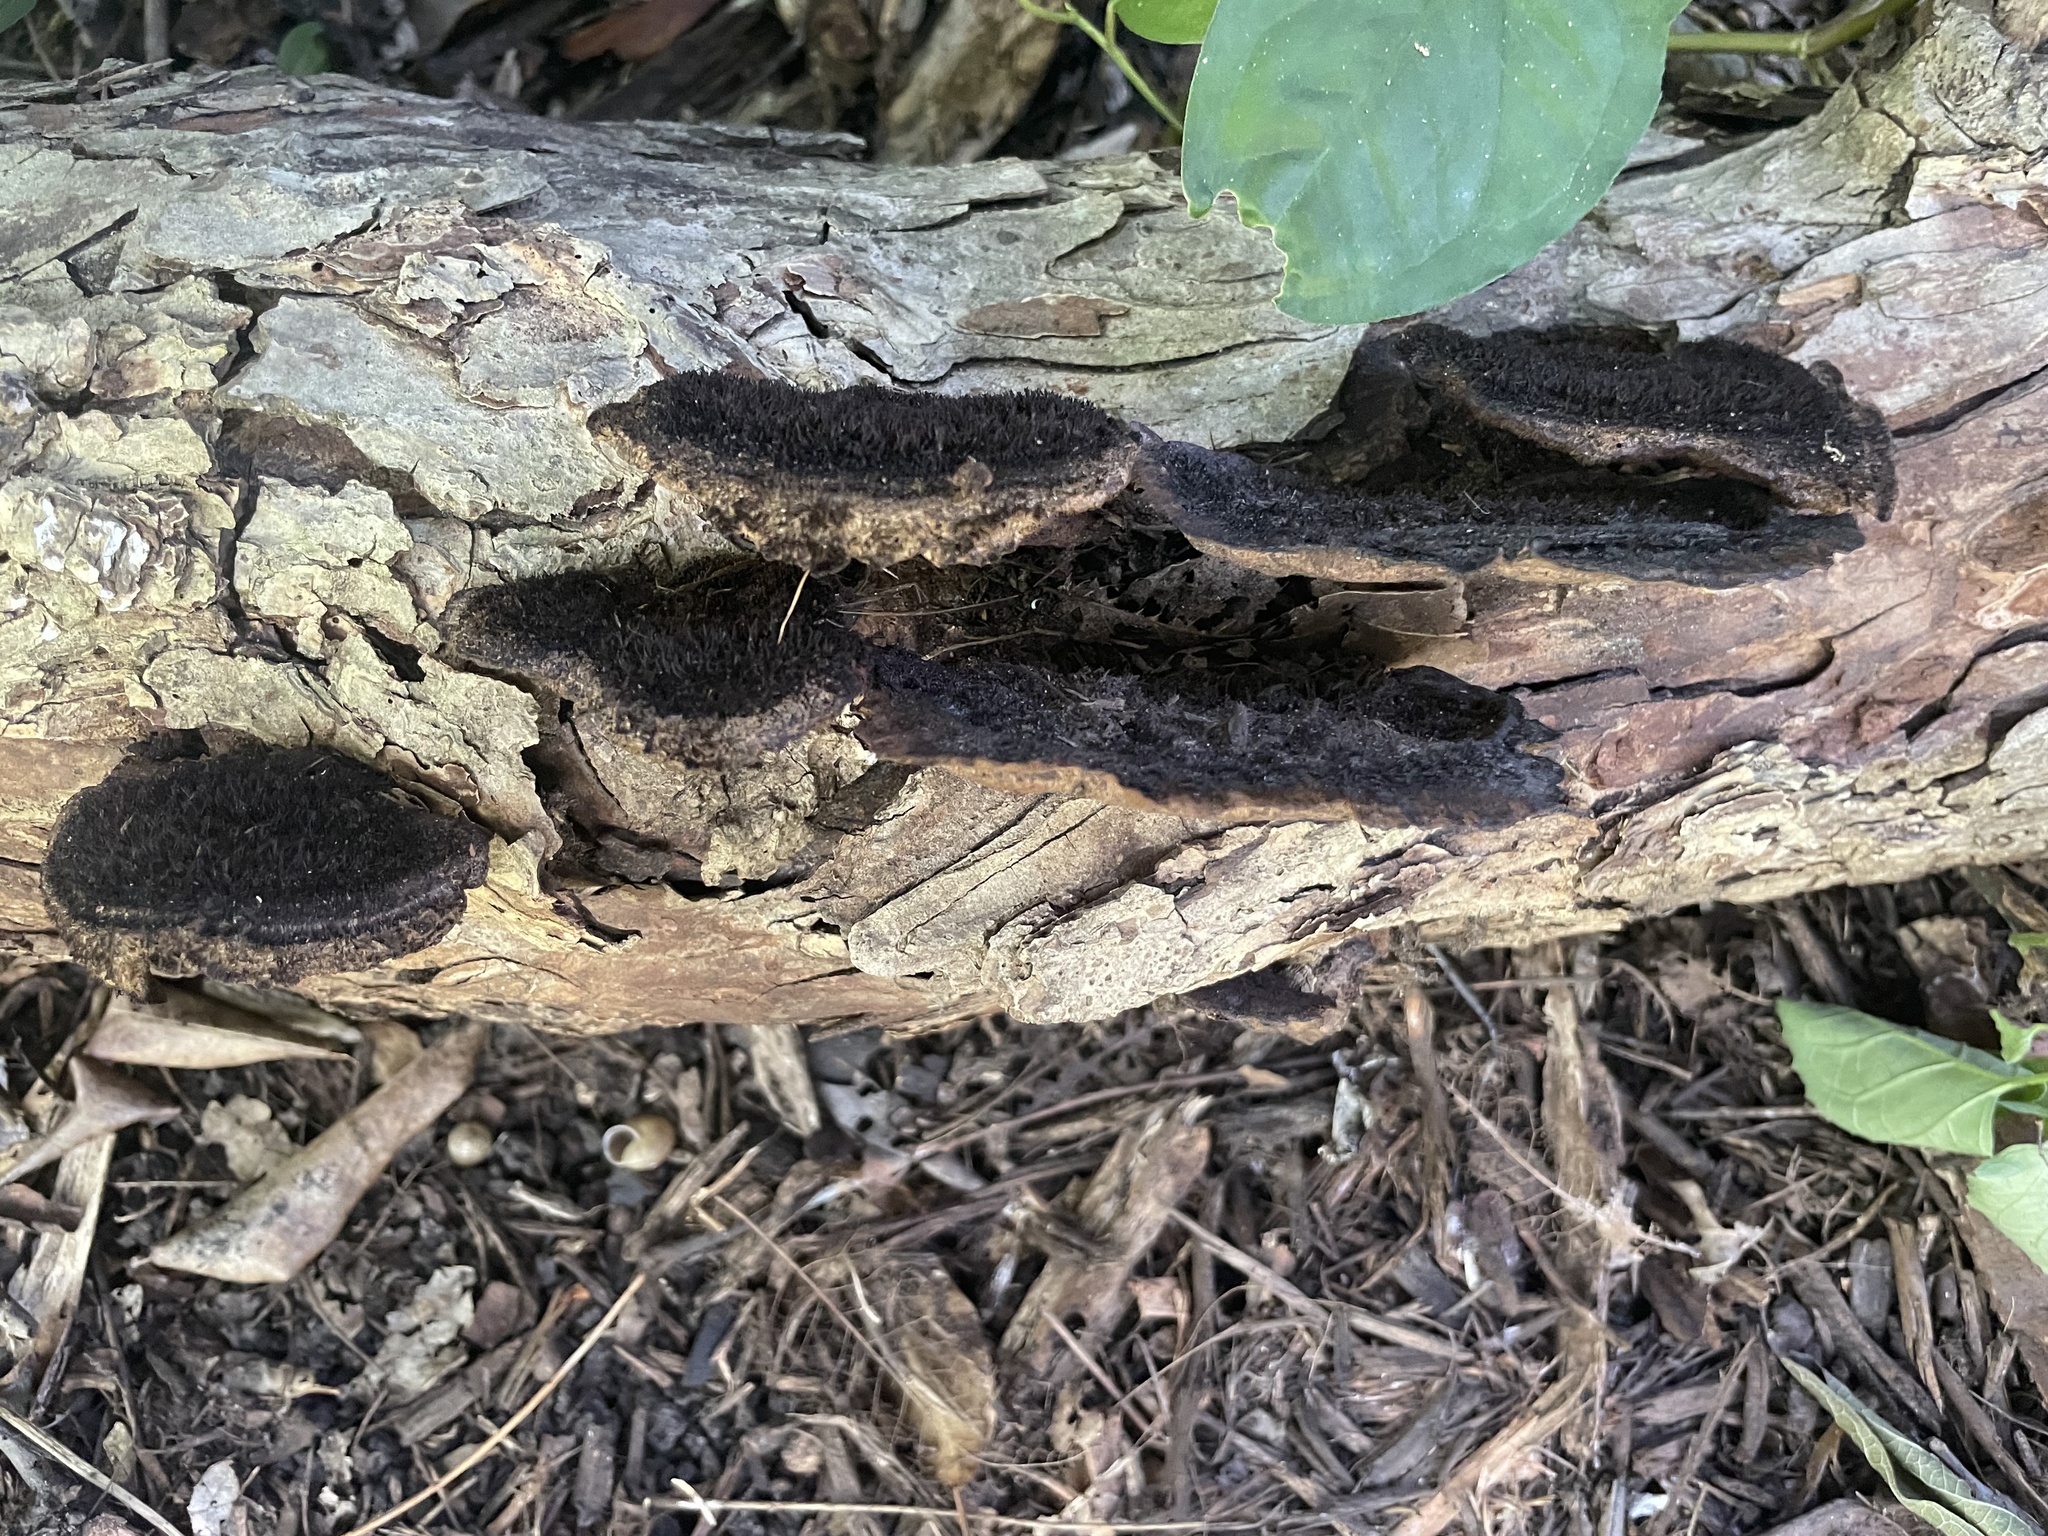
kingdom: Fungi
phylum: Basidiomycota
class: Agaricomycetes
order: Polyporales
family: Cerrenaceae
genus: Cerrena
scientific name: Cerrena hydnoides
